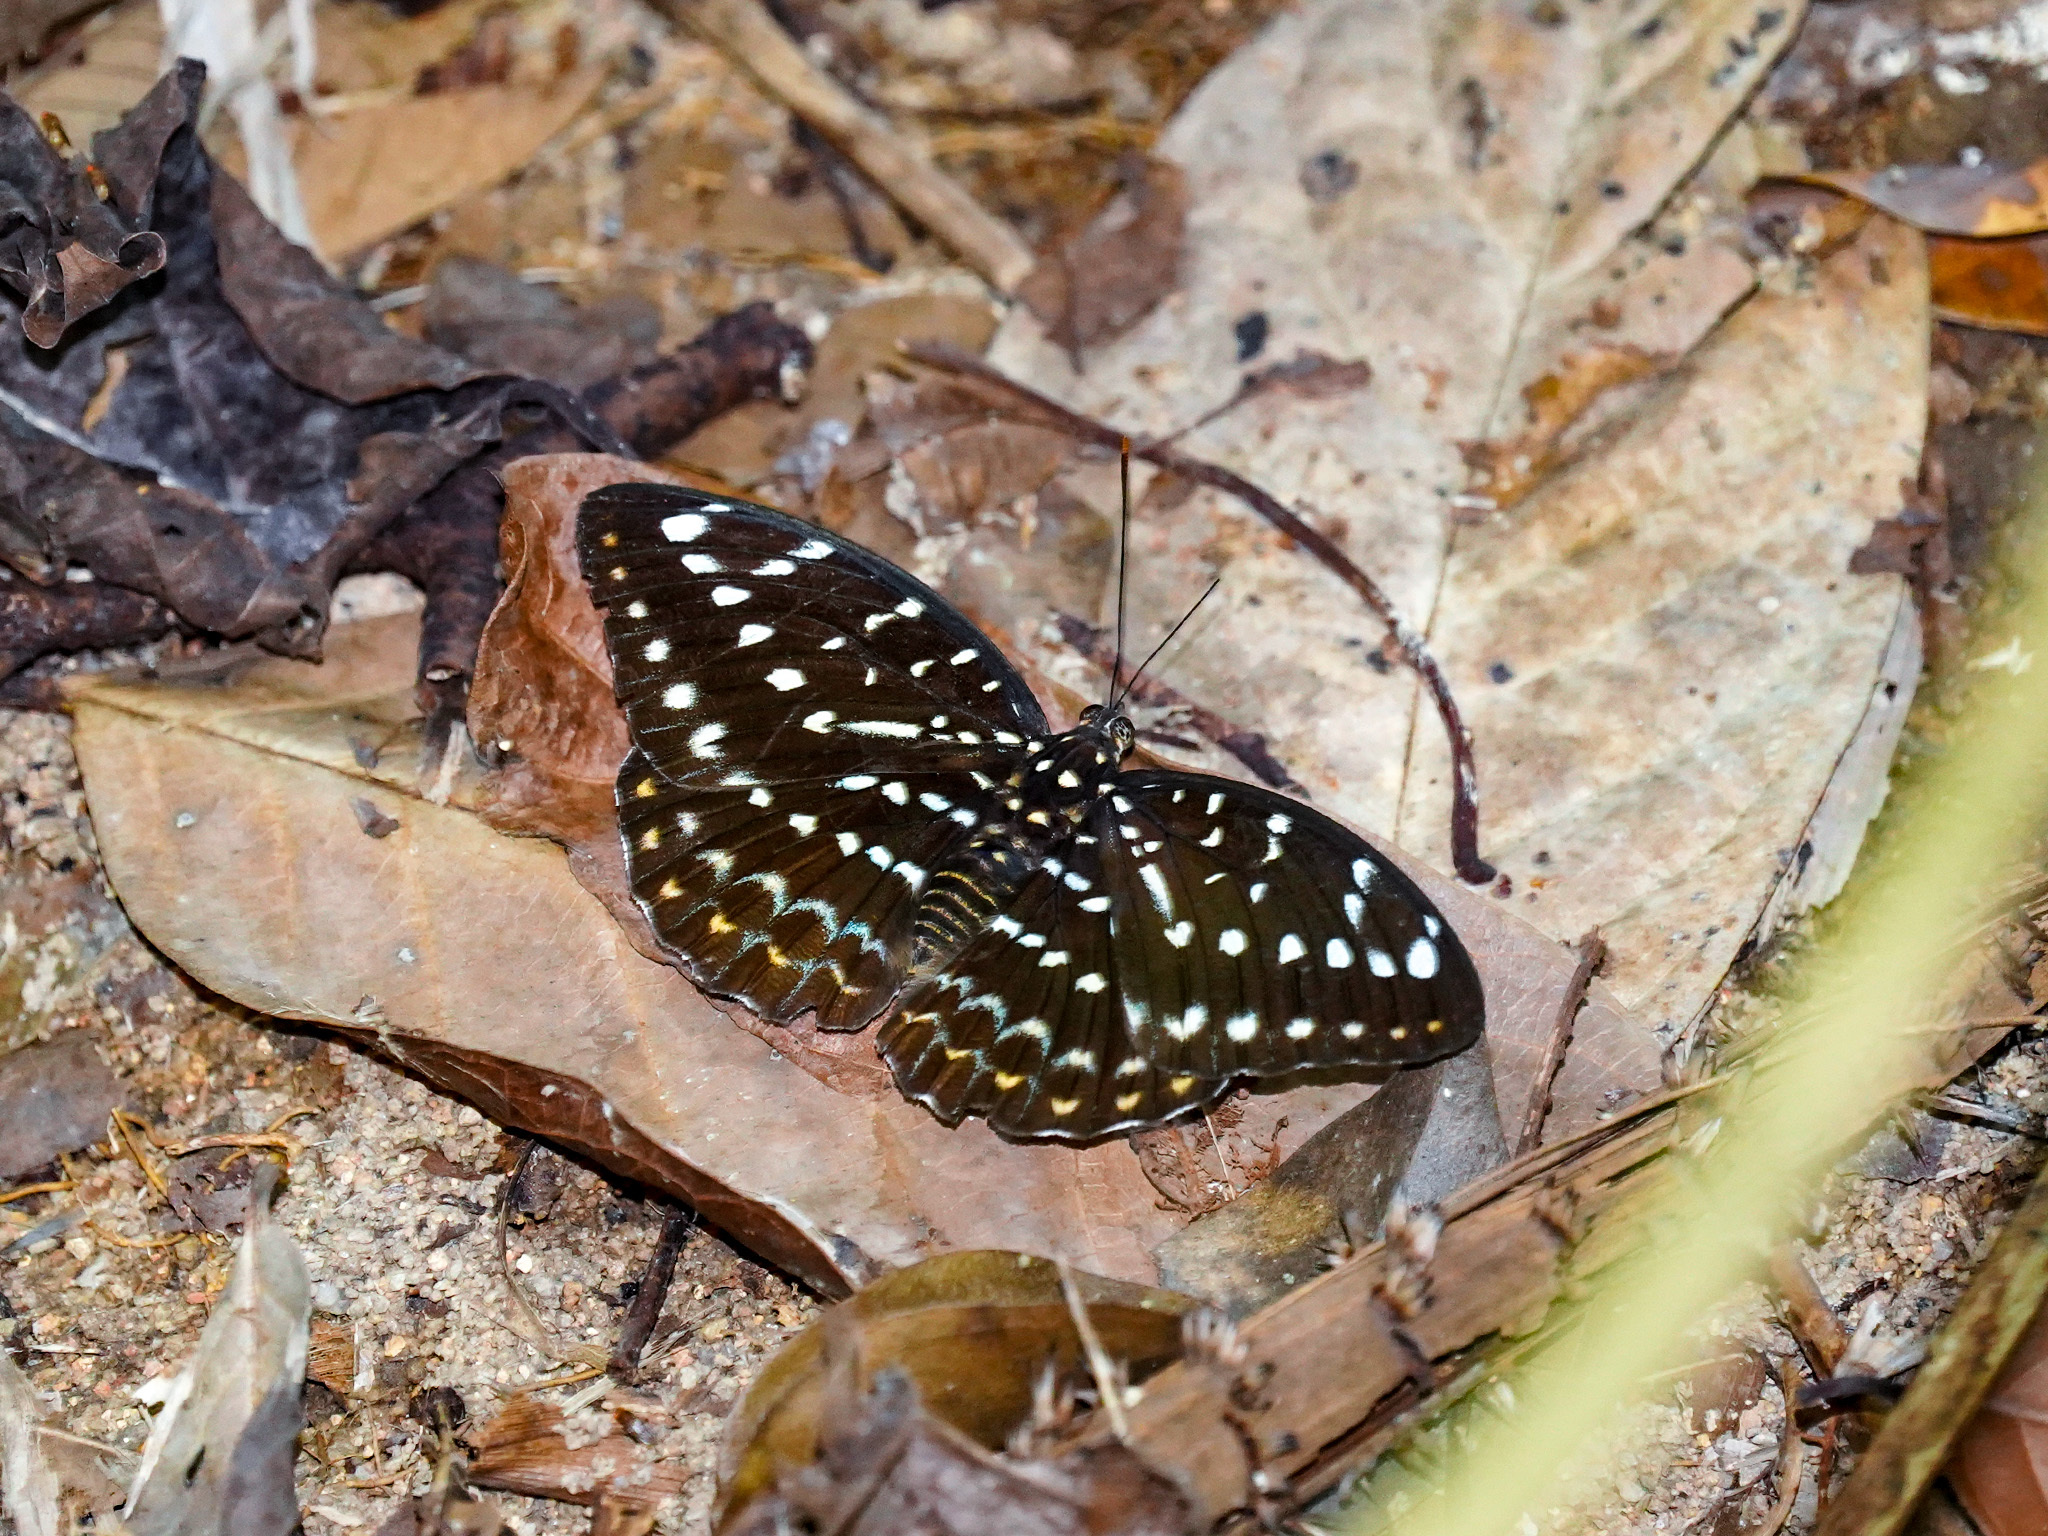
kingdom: Animalia
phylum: Arthropoda
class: Insecta
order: Lepidoptera
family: Nymphalidae
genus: Lexias
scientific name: Lexias pardalis
